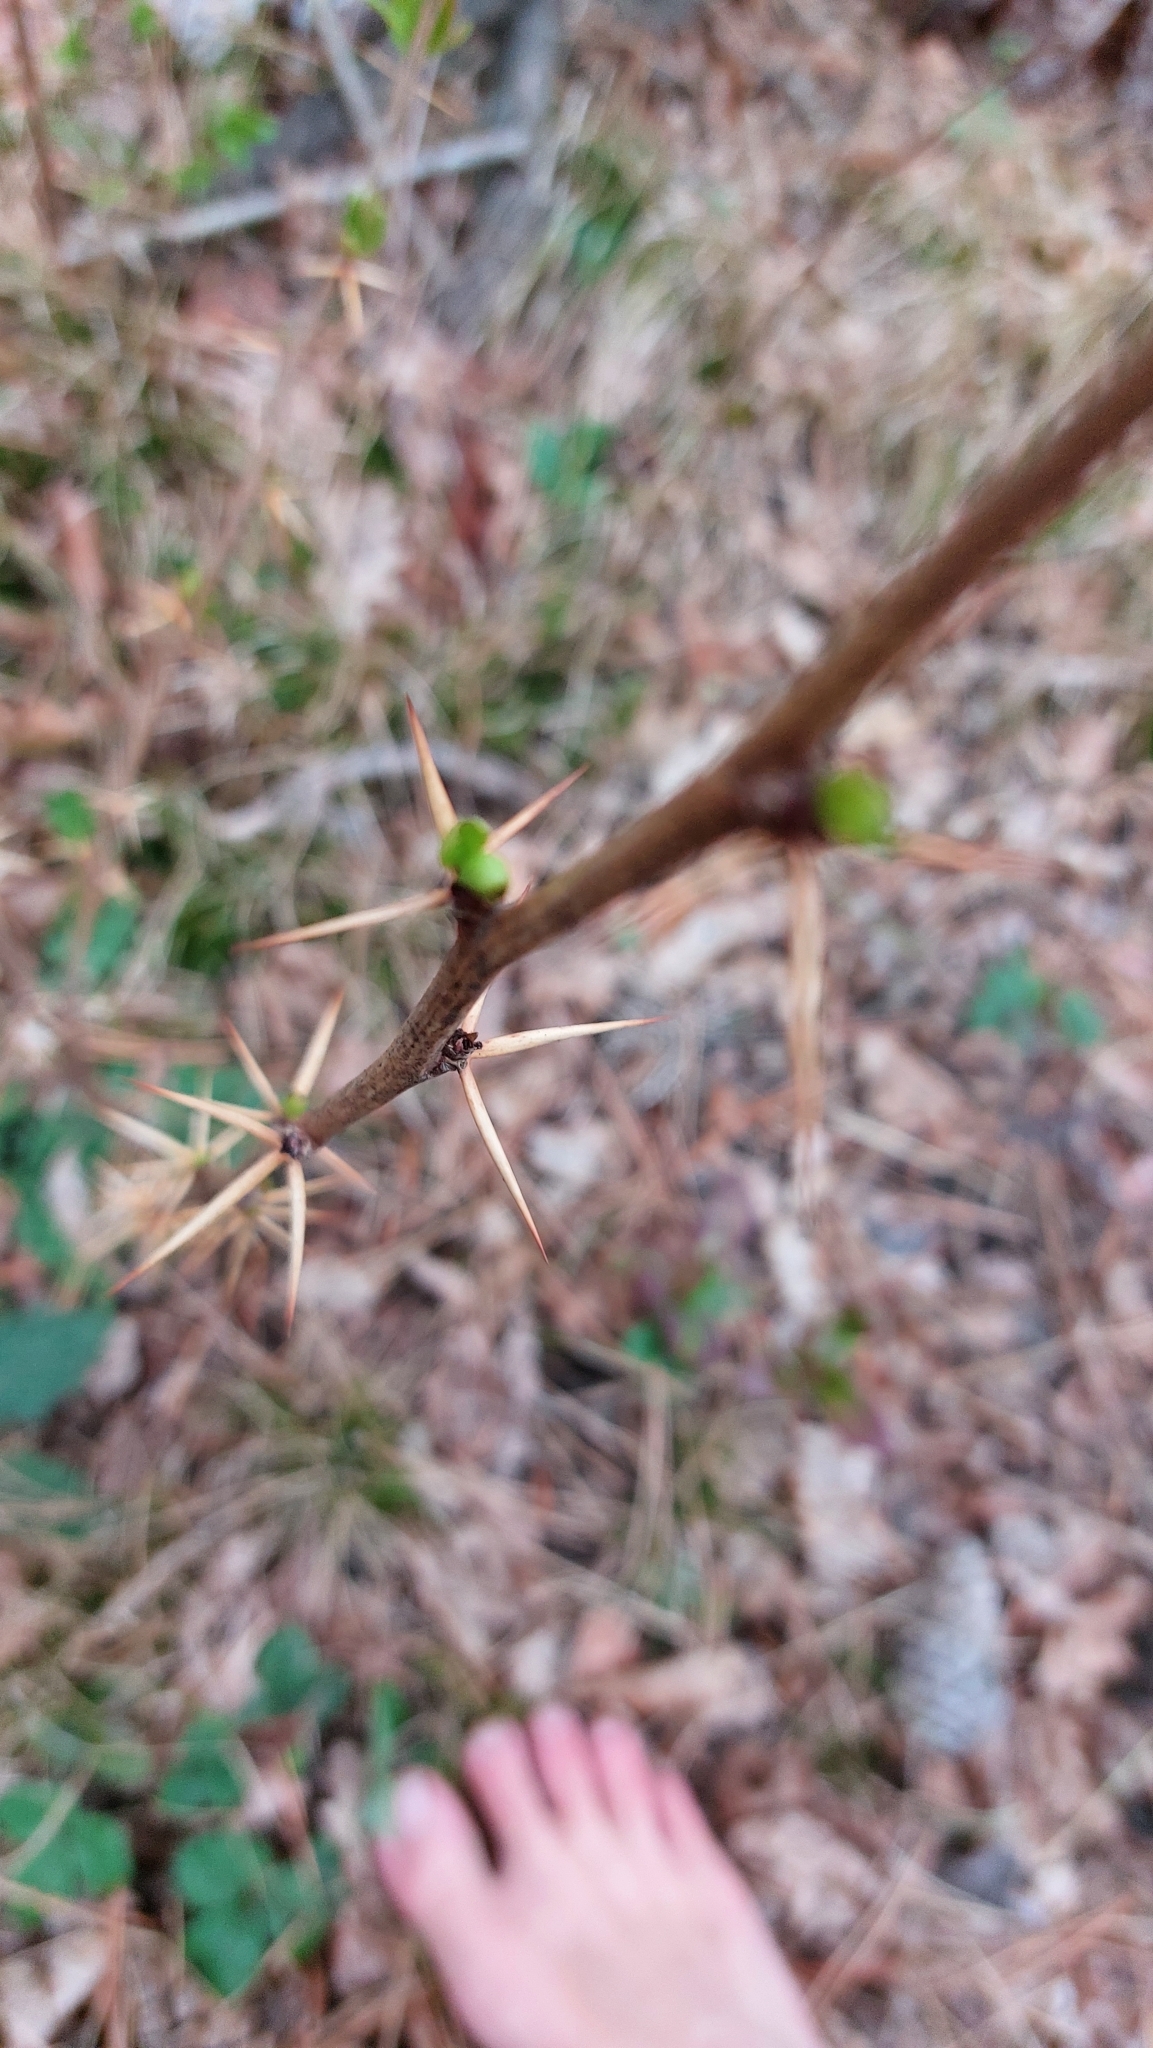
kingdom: Plantae
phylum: Tracheophyta
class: Magnoliopsida
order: Ranunculales
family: Berberidaceae
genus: Berberis
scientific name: Berberis vulgaris
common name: Barberry
